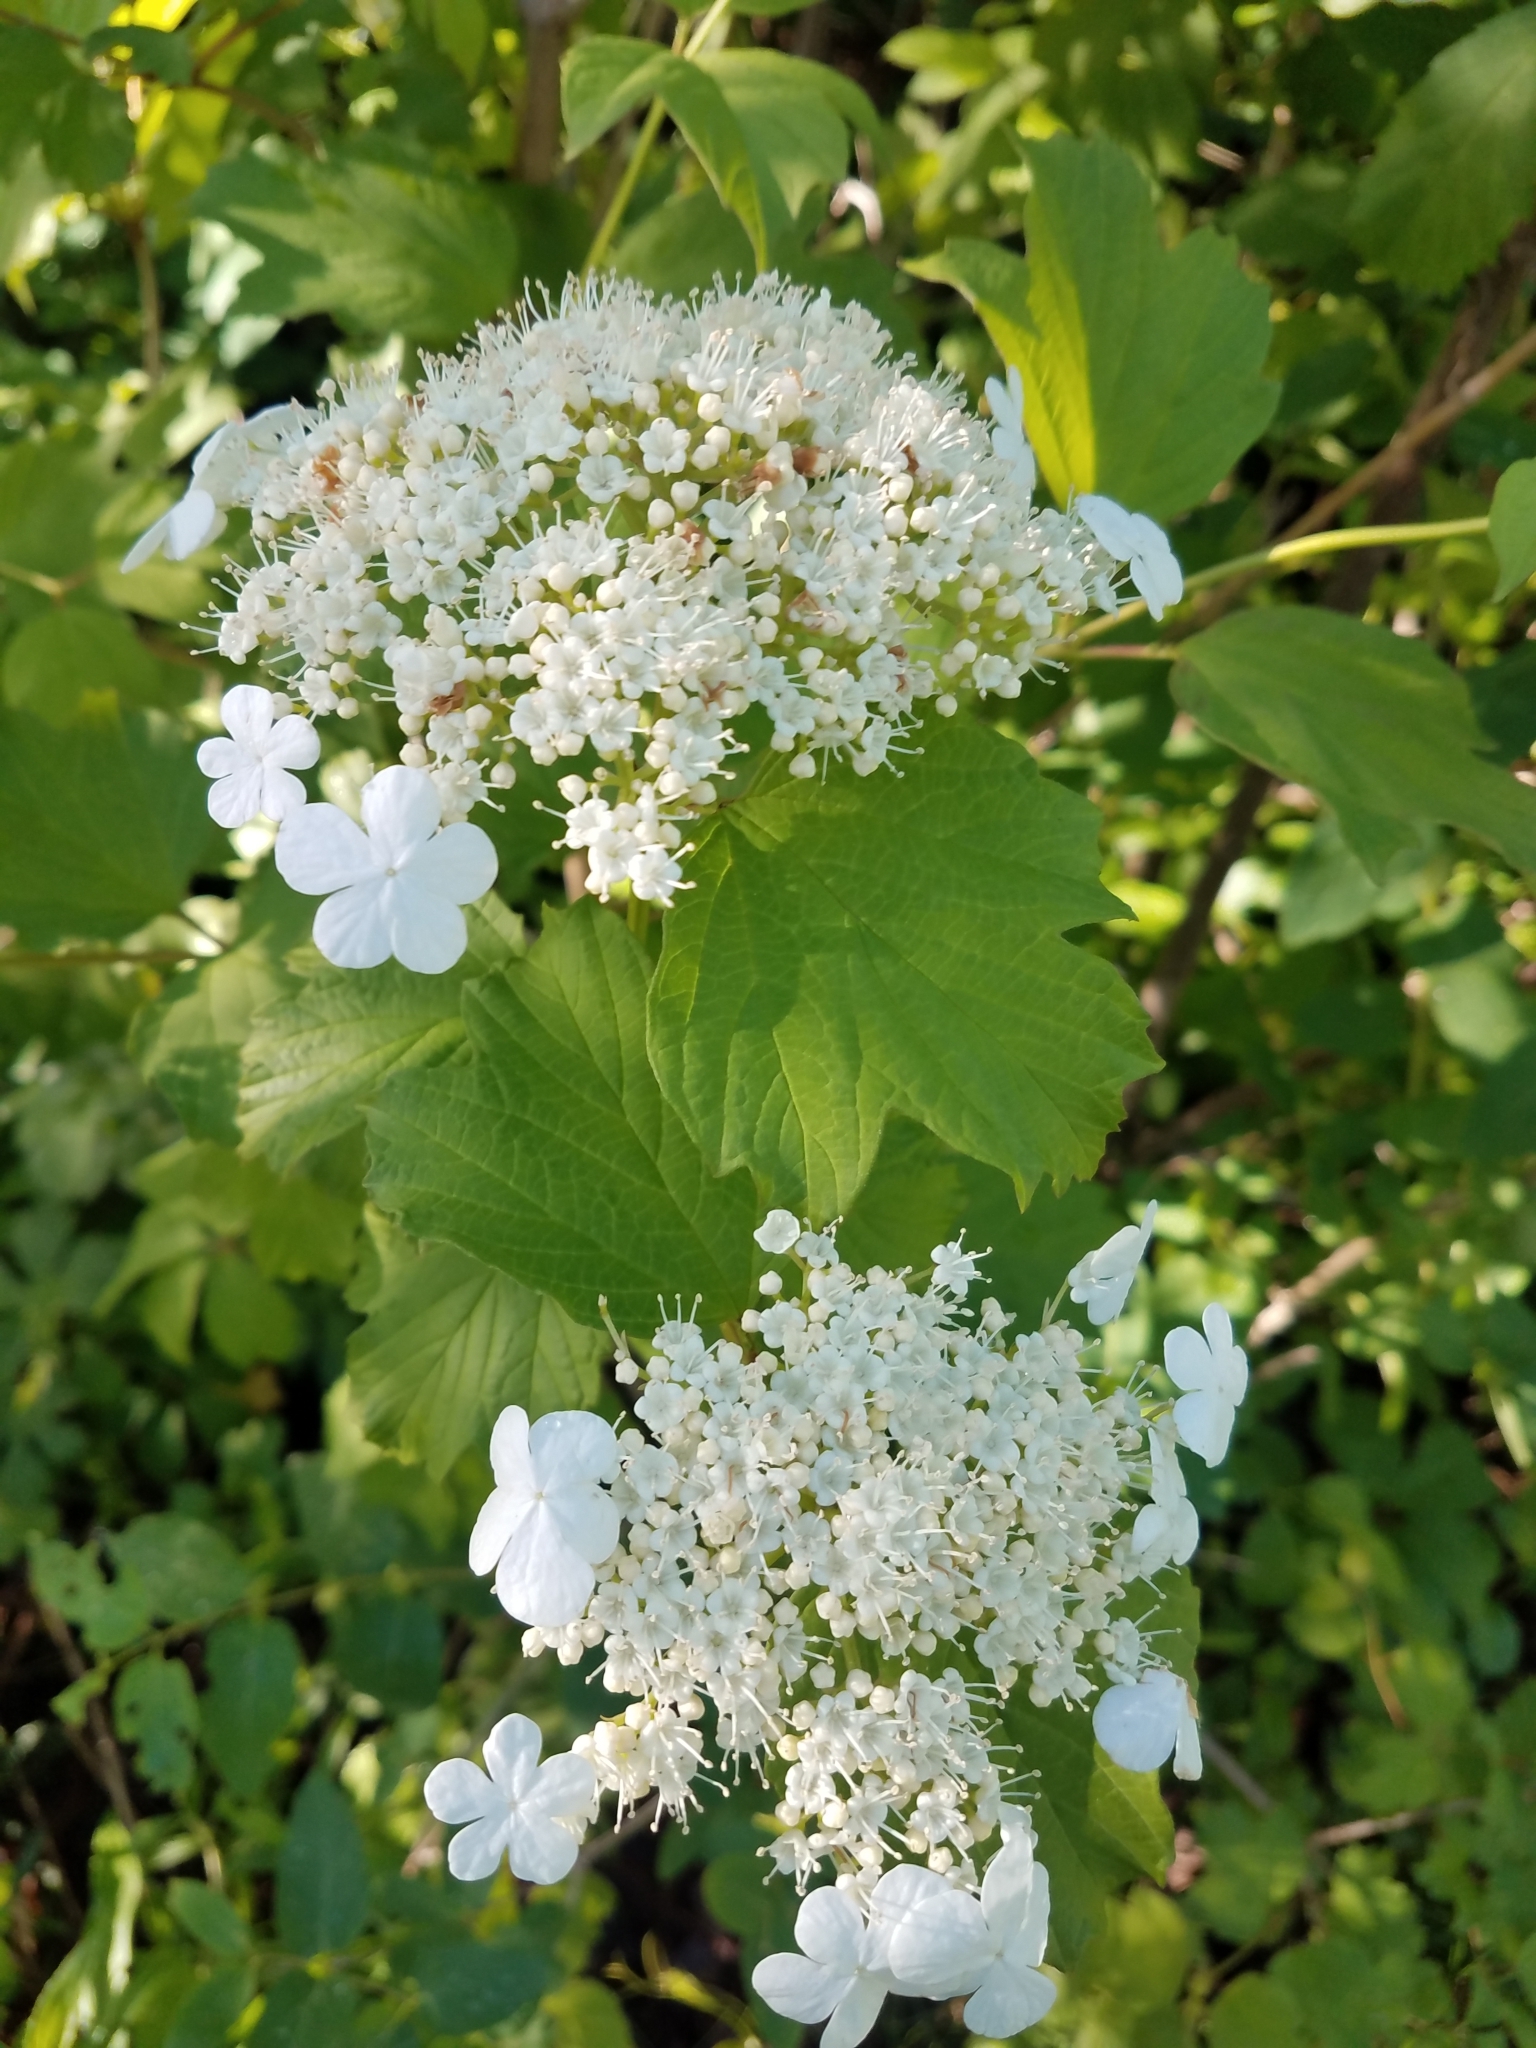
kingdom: Plantae
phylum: Tracheophyta
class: Magnoliopsida
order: Dipsacales
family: Viburnaceae
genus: Viburnum
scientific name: Viburnum opulus
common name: Guelder-rose
